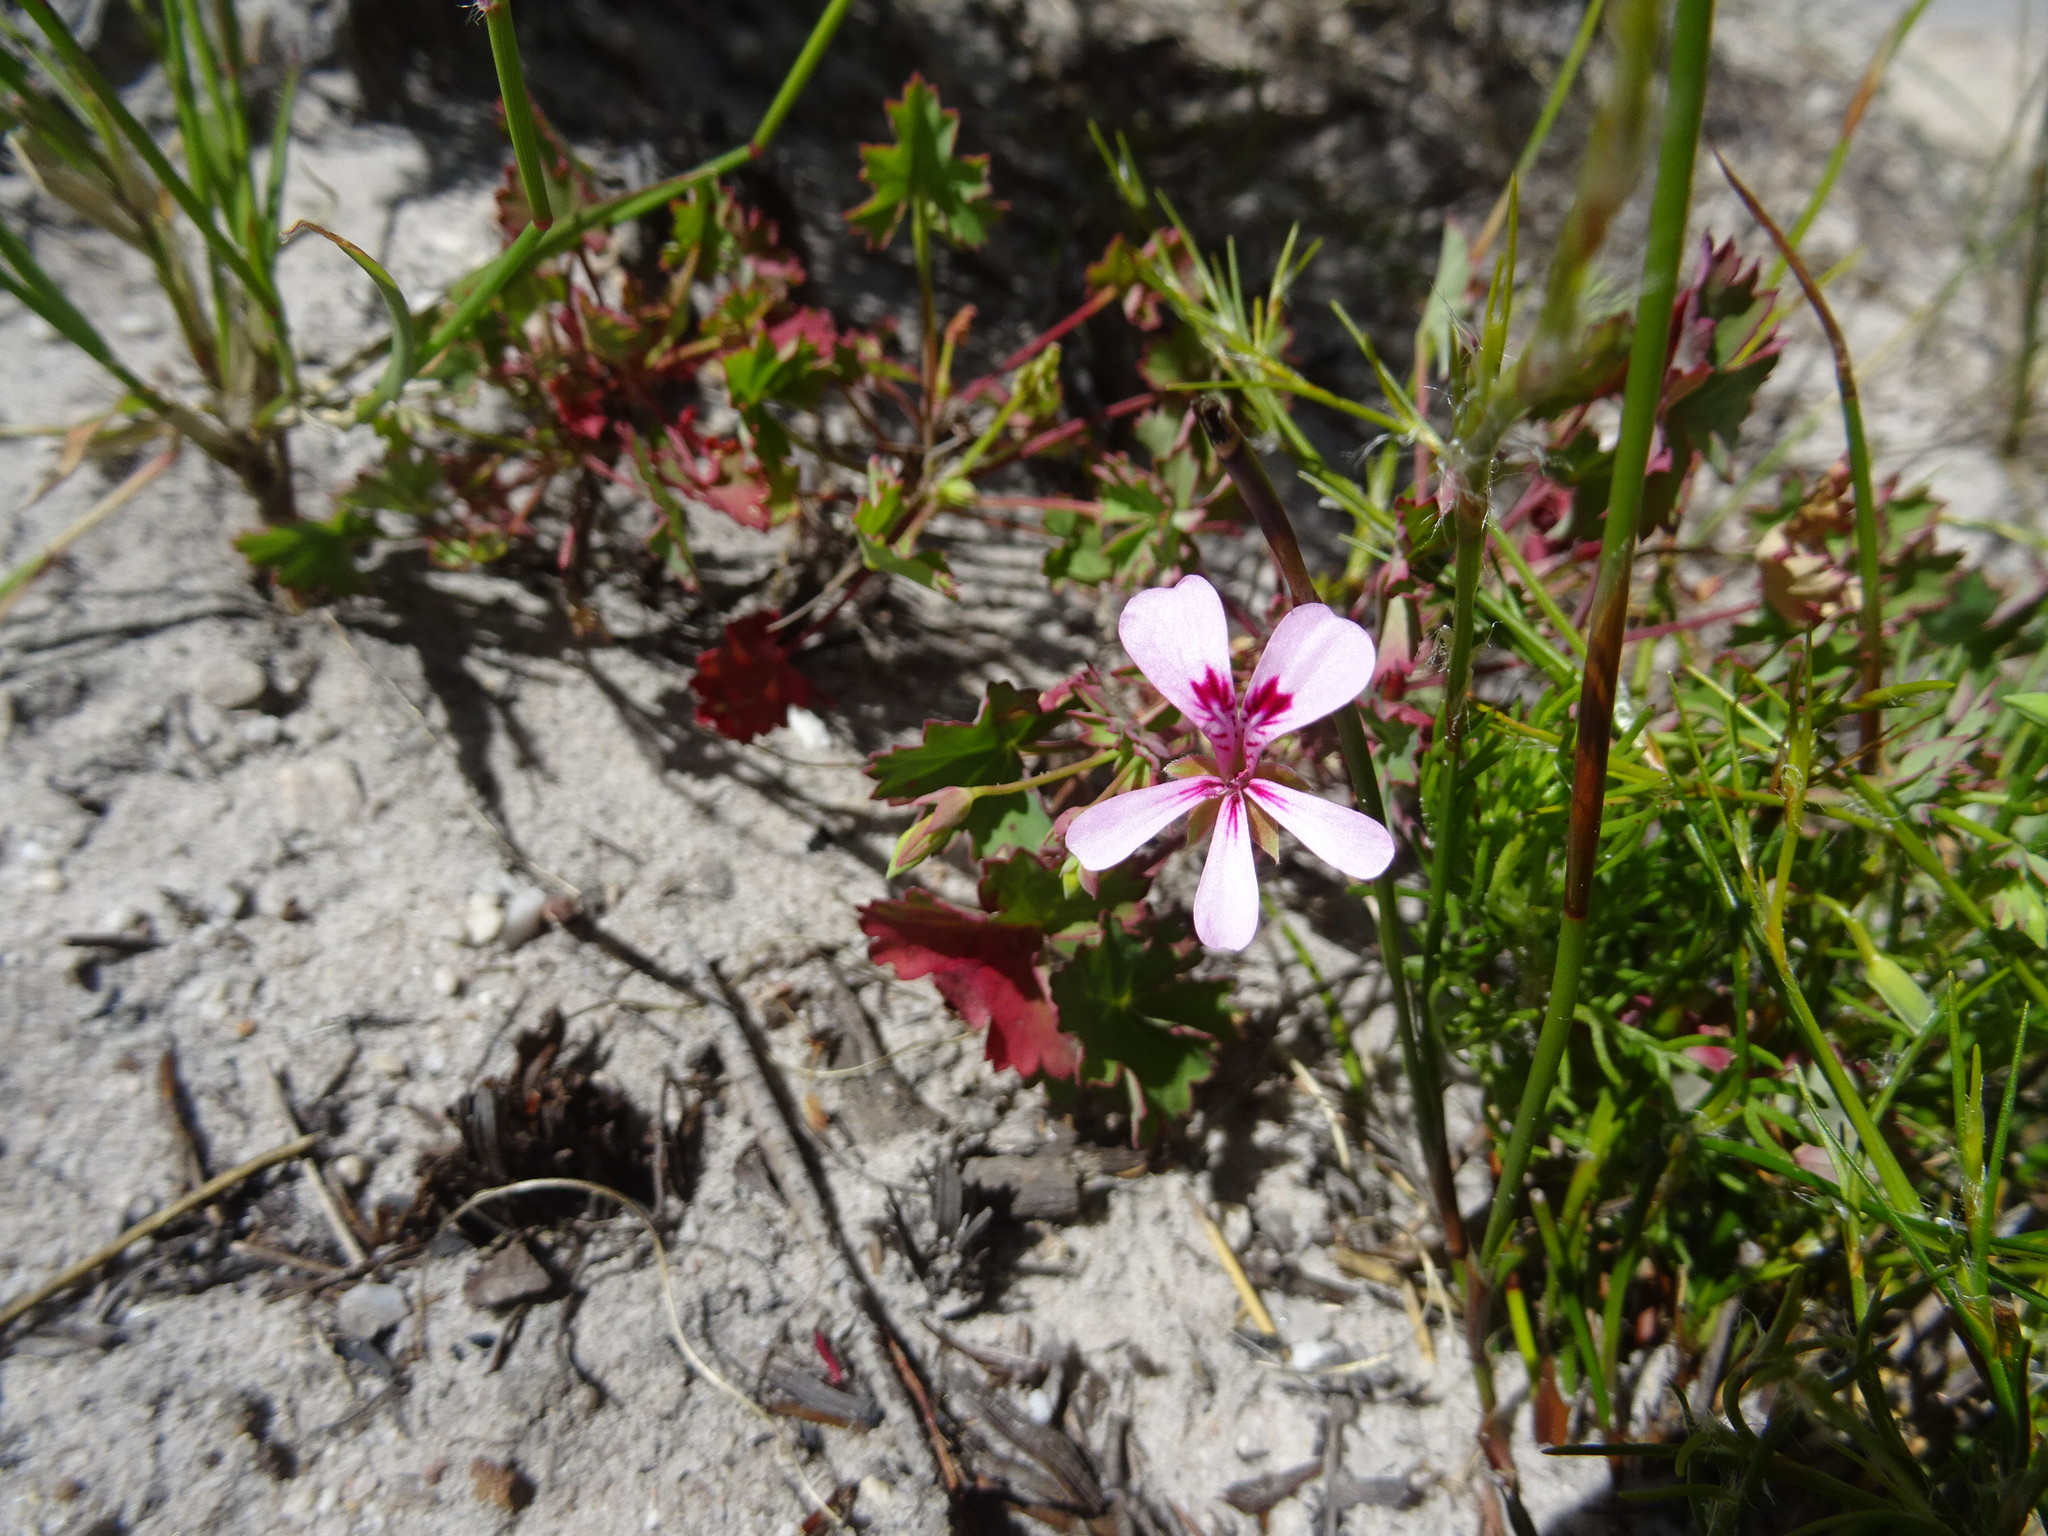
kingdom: Plantae
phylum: Tracheophyta
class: Magnoliopsida
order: Geraniales
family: Geraniaceae
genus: Pelargonium
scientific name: Pelargonium patulum
